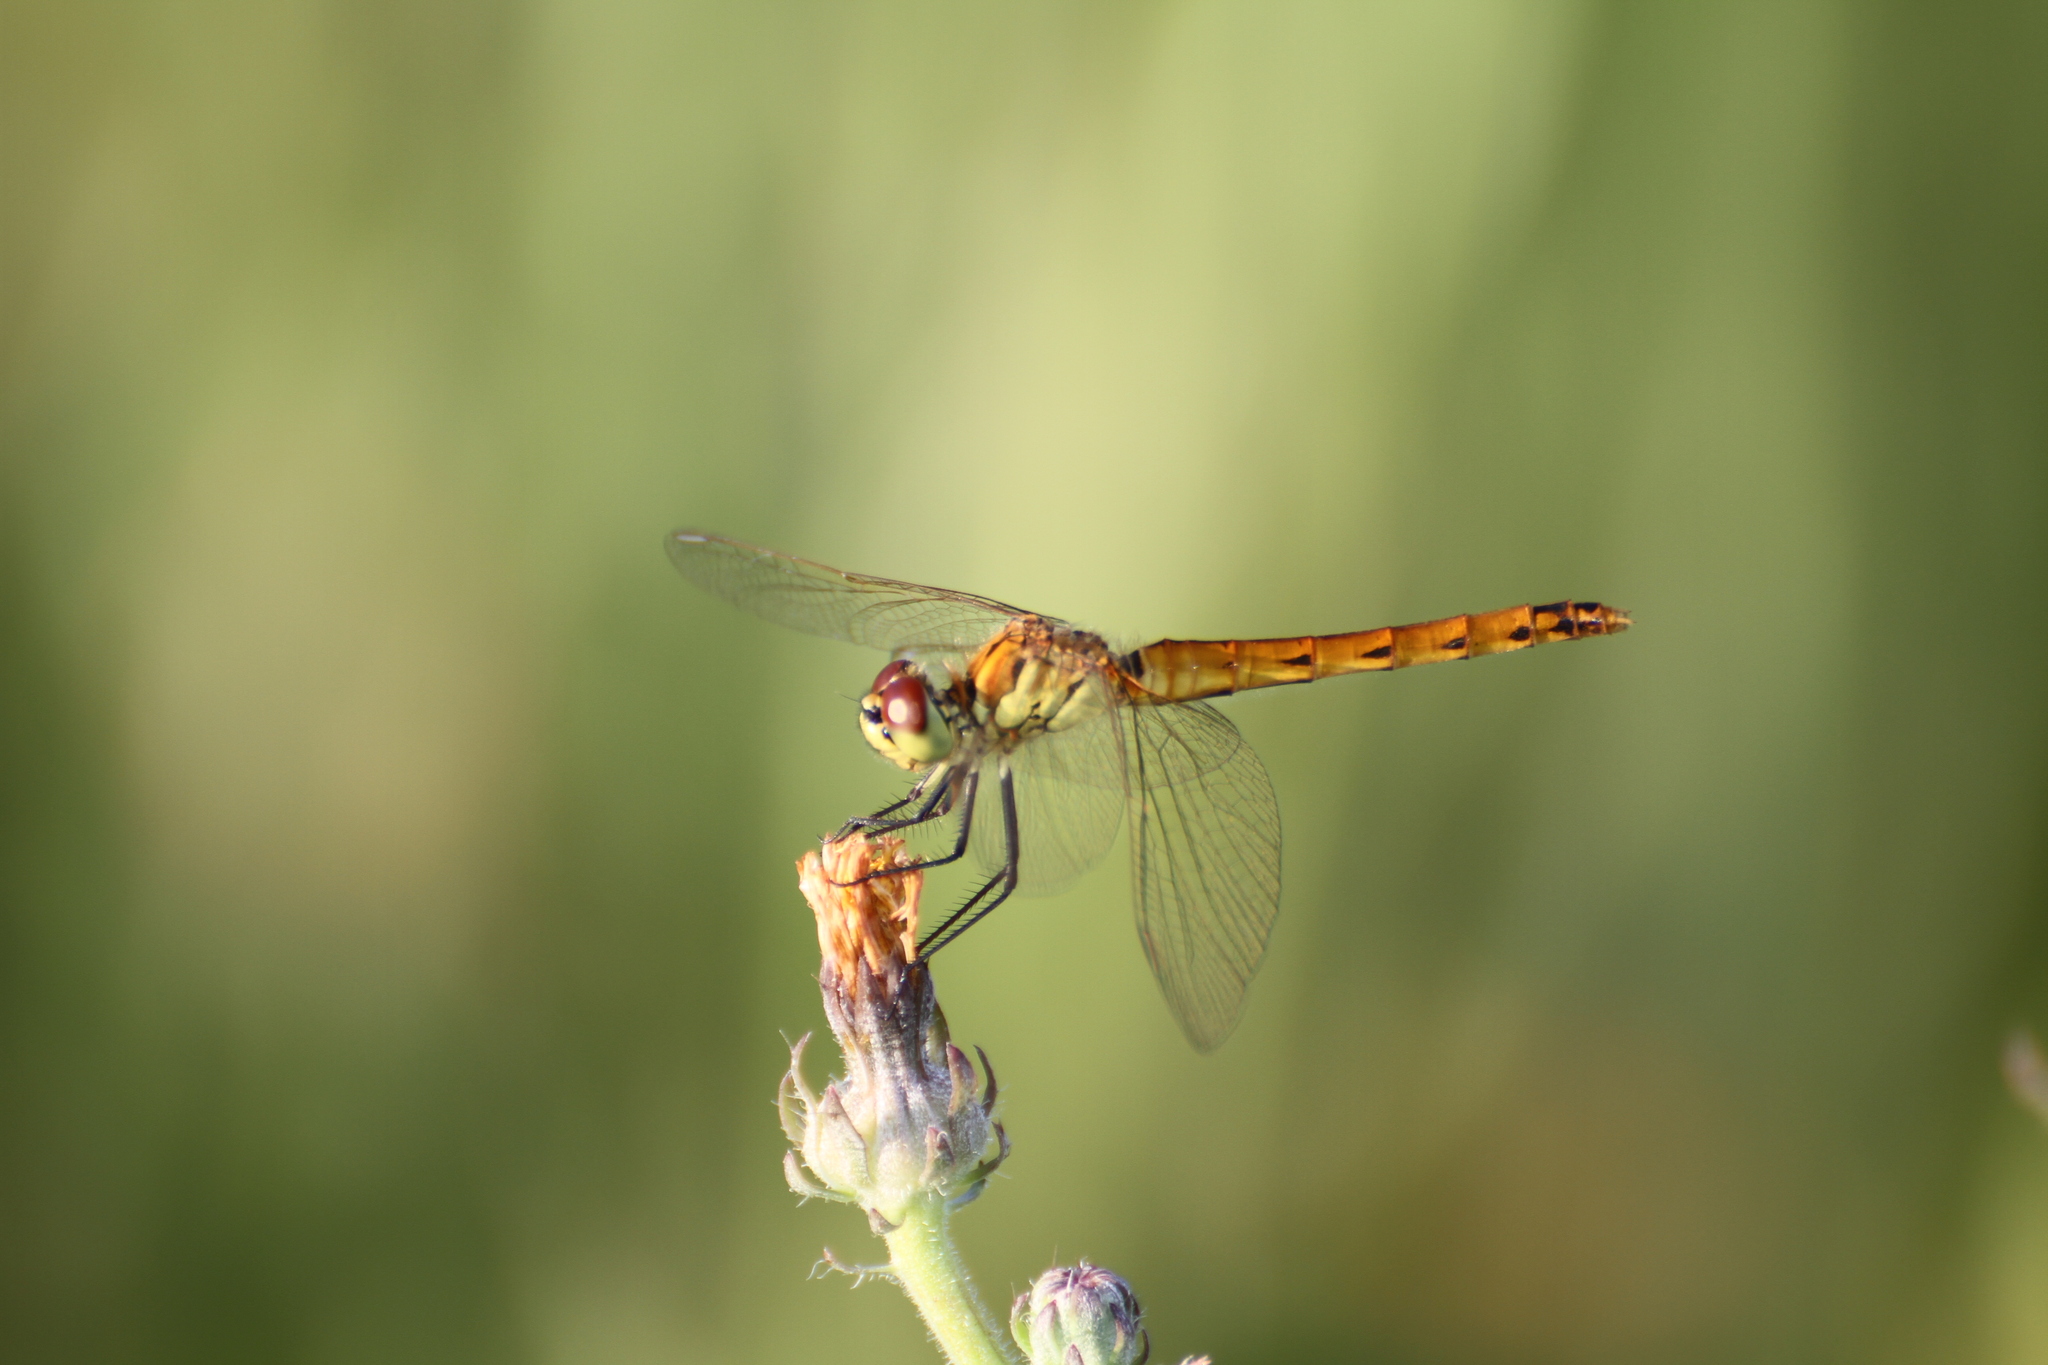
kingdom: Animalia
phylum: Arthropoda
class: Insecta
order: Odonata
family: Libellulidae
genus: Sympetrum
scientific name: Sympetrum depressiusculum
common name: Spotted darter
